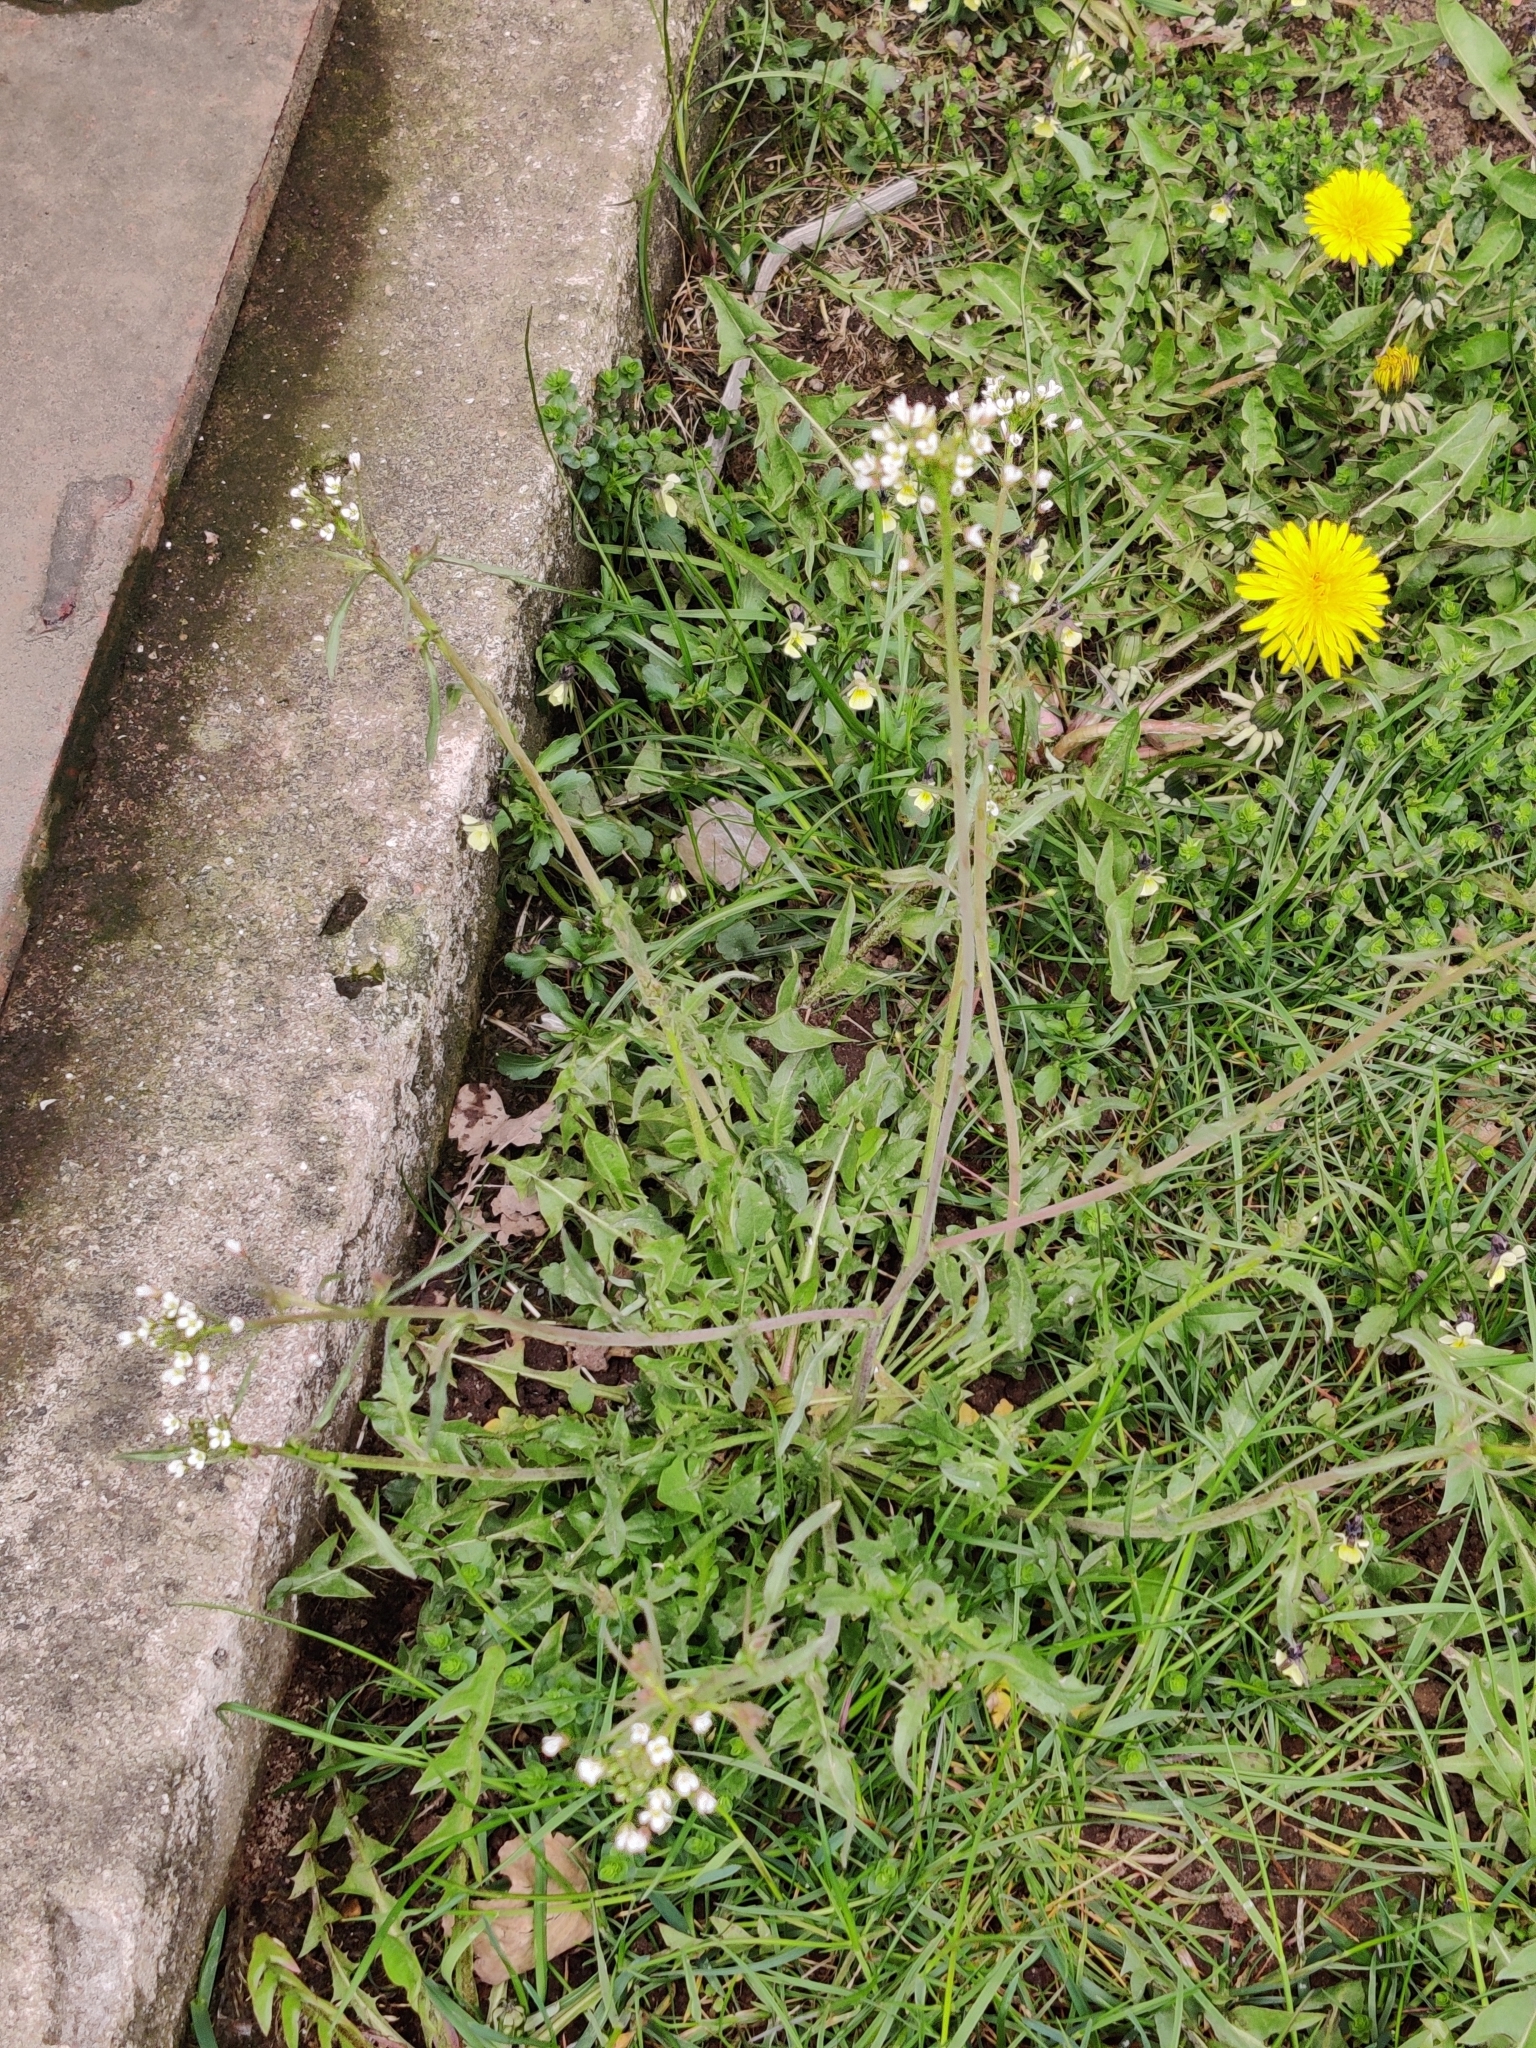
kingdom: Plantae
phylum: Tracheophyta
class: Magnoliopsida
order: Brassicales
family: Brassicaceae
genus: Capsella
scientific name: Capsella bursa-pastoris
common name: Shepherd's purse
